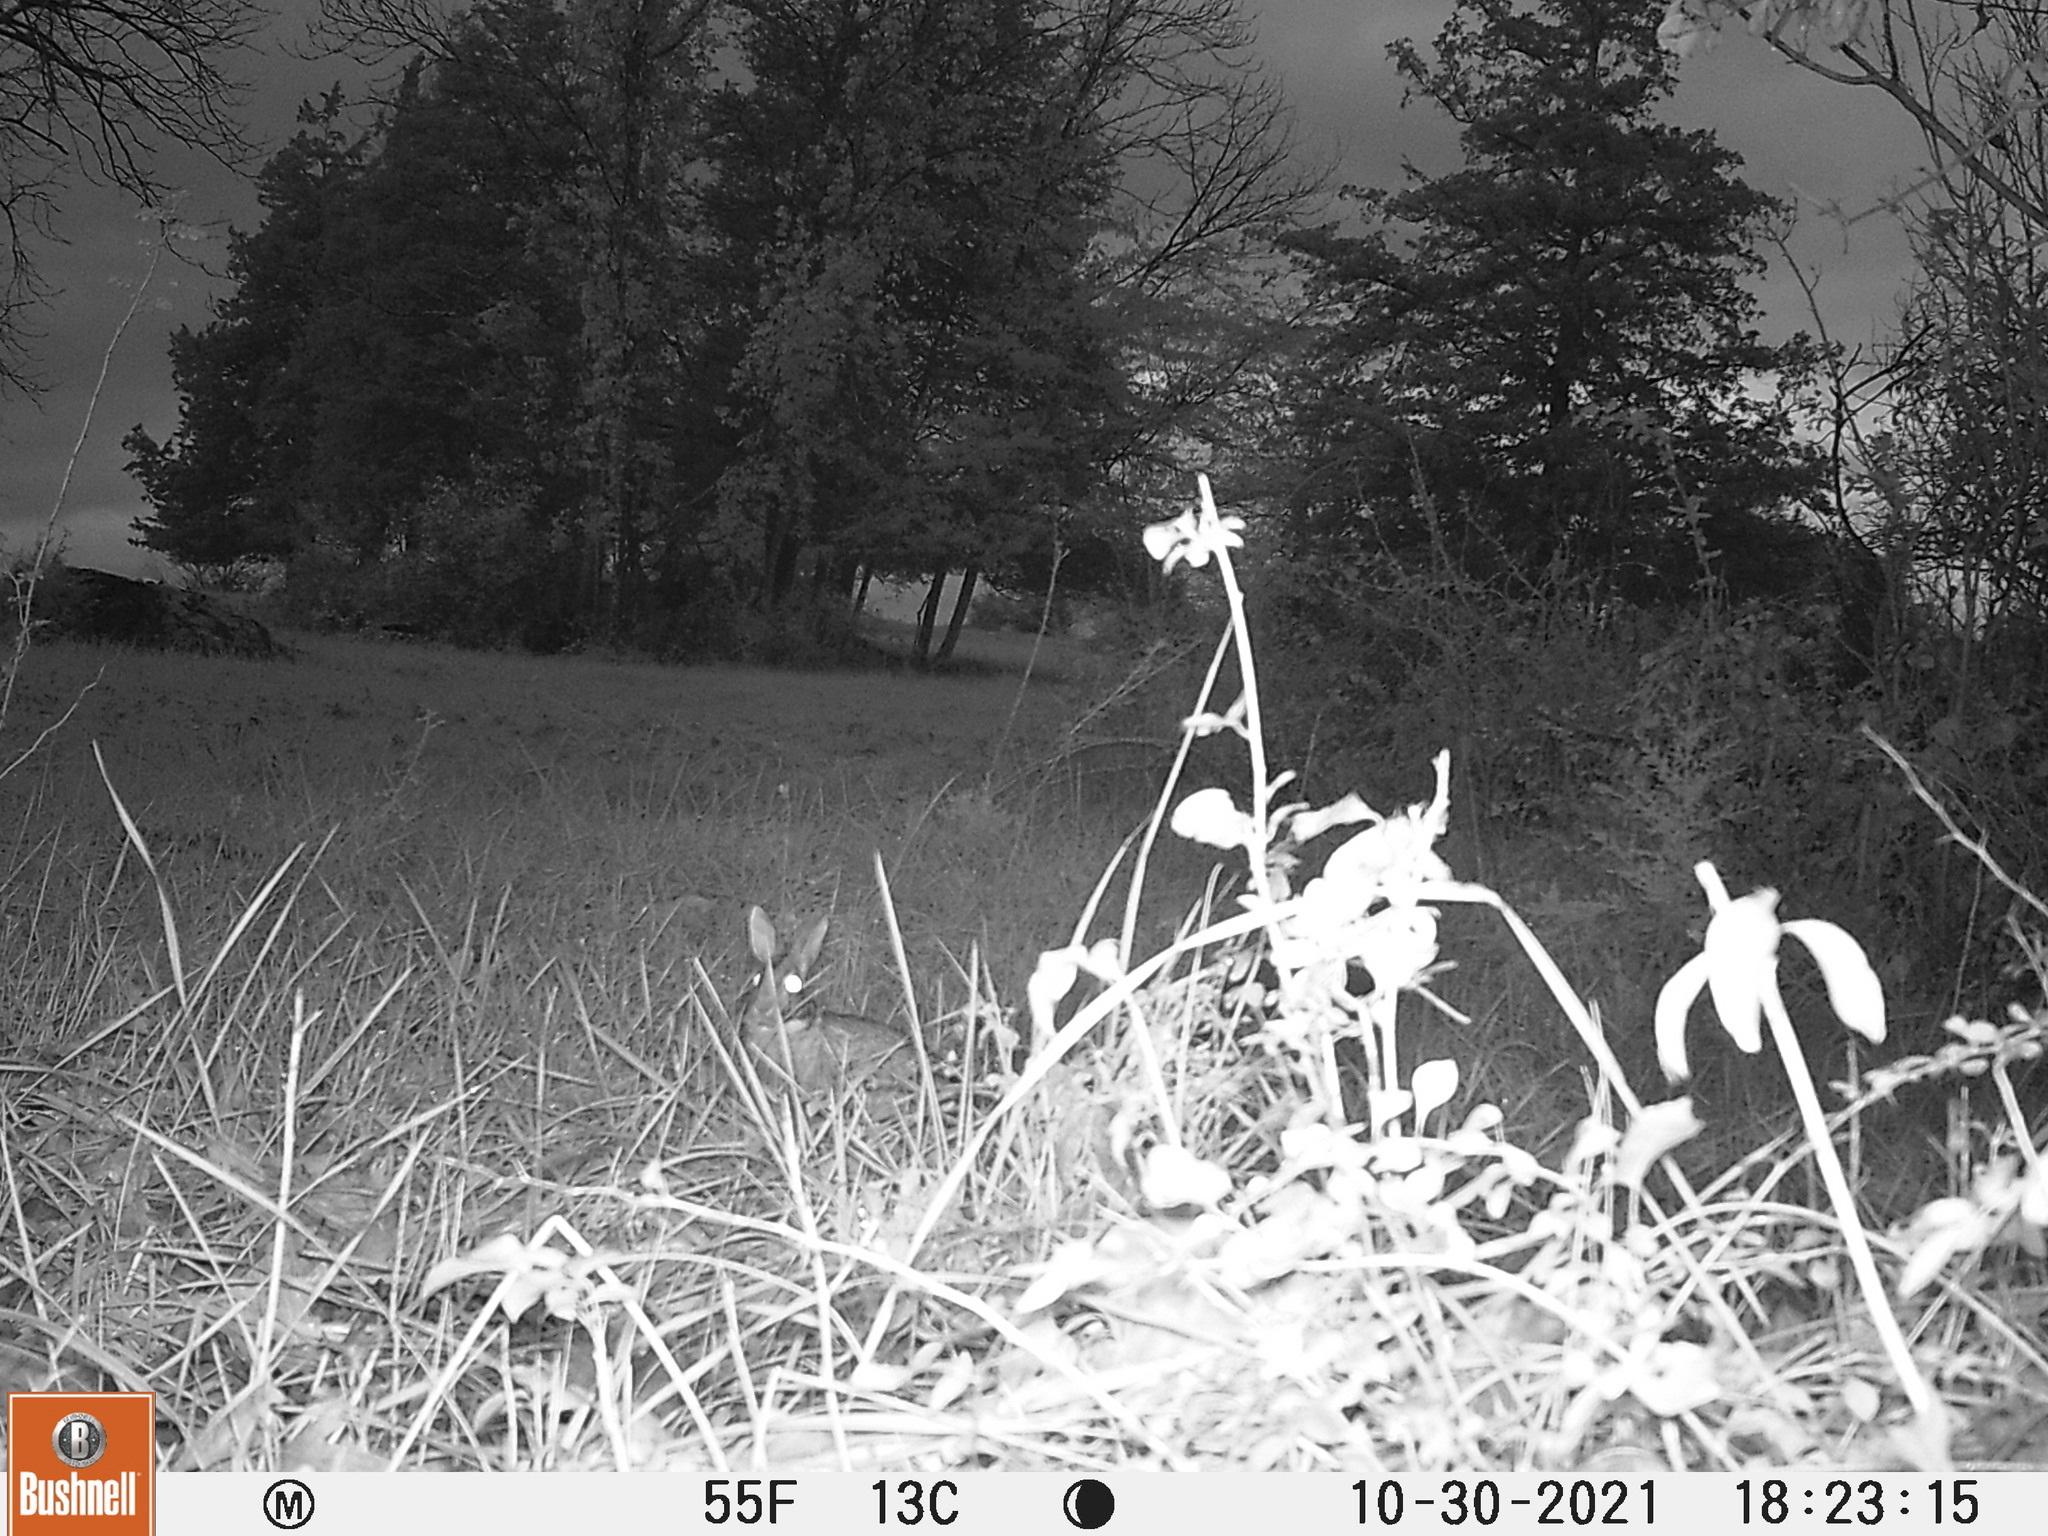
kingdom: Animalia
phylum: Chordata
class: Mammalia
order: Lagomorpha
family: Leporidae
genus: Sylvilagus
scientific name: Sylvilagus floridanus
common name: Eastern cottontail
